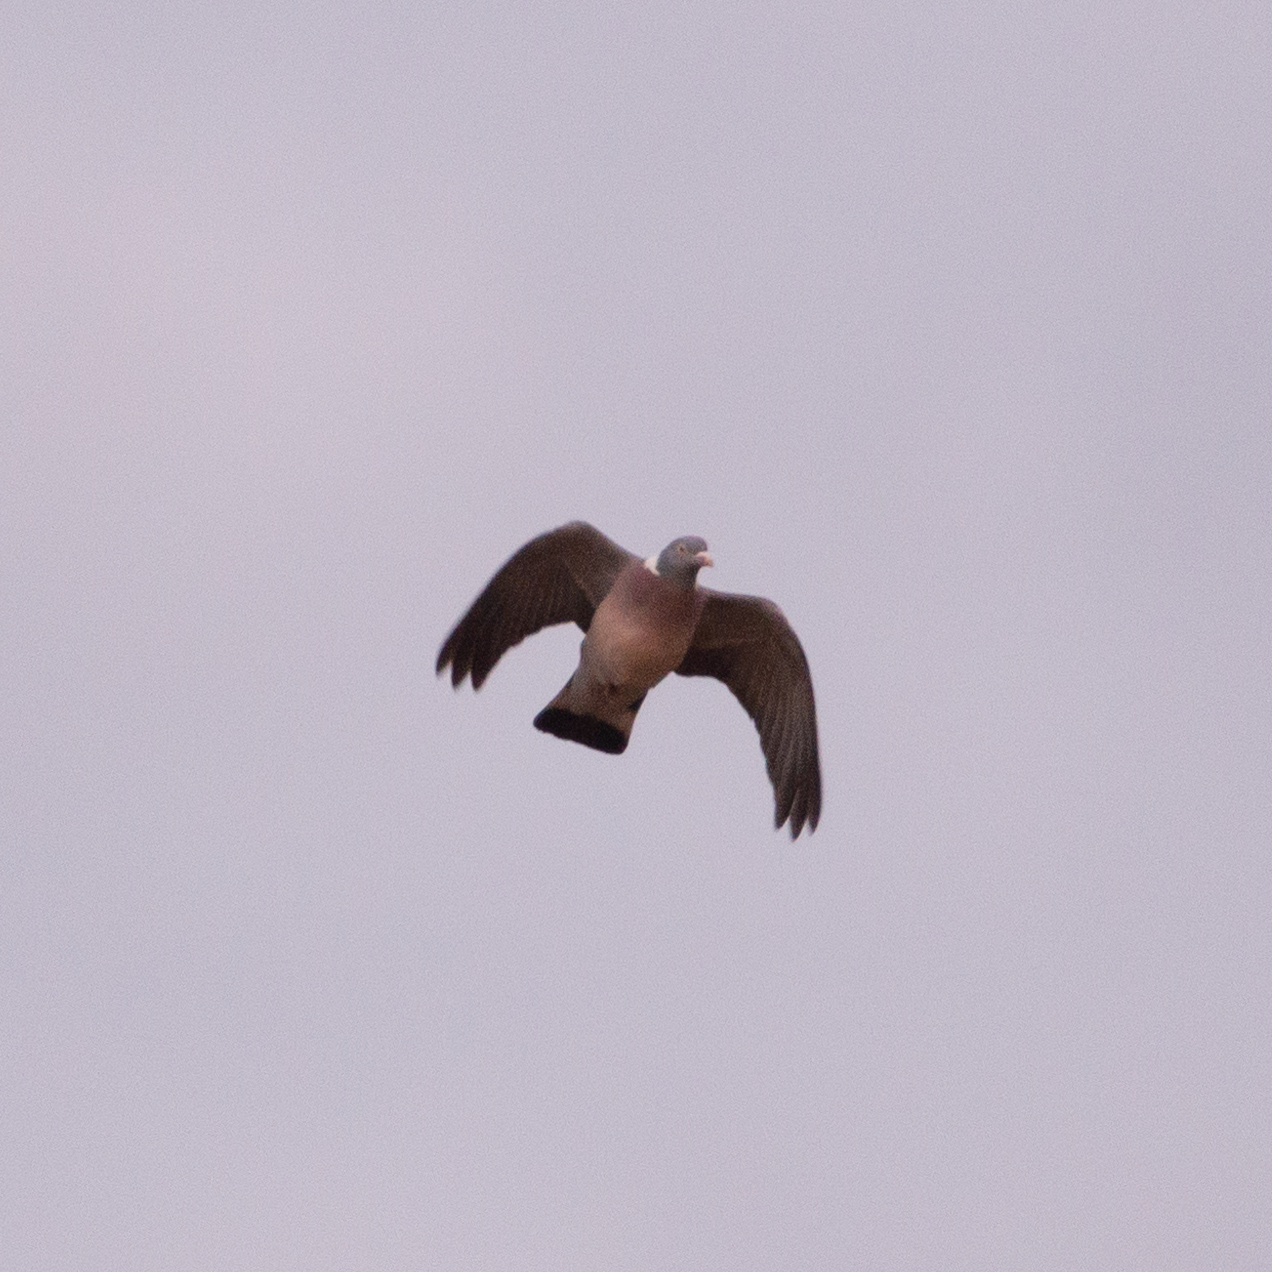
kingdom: Animalia
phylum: Chordata
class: Aves
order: Columbiformes
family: Columbidae
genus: Columba
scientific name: Columba palumbus
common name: Common wood pigeon
